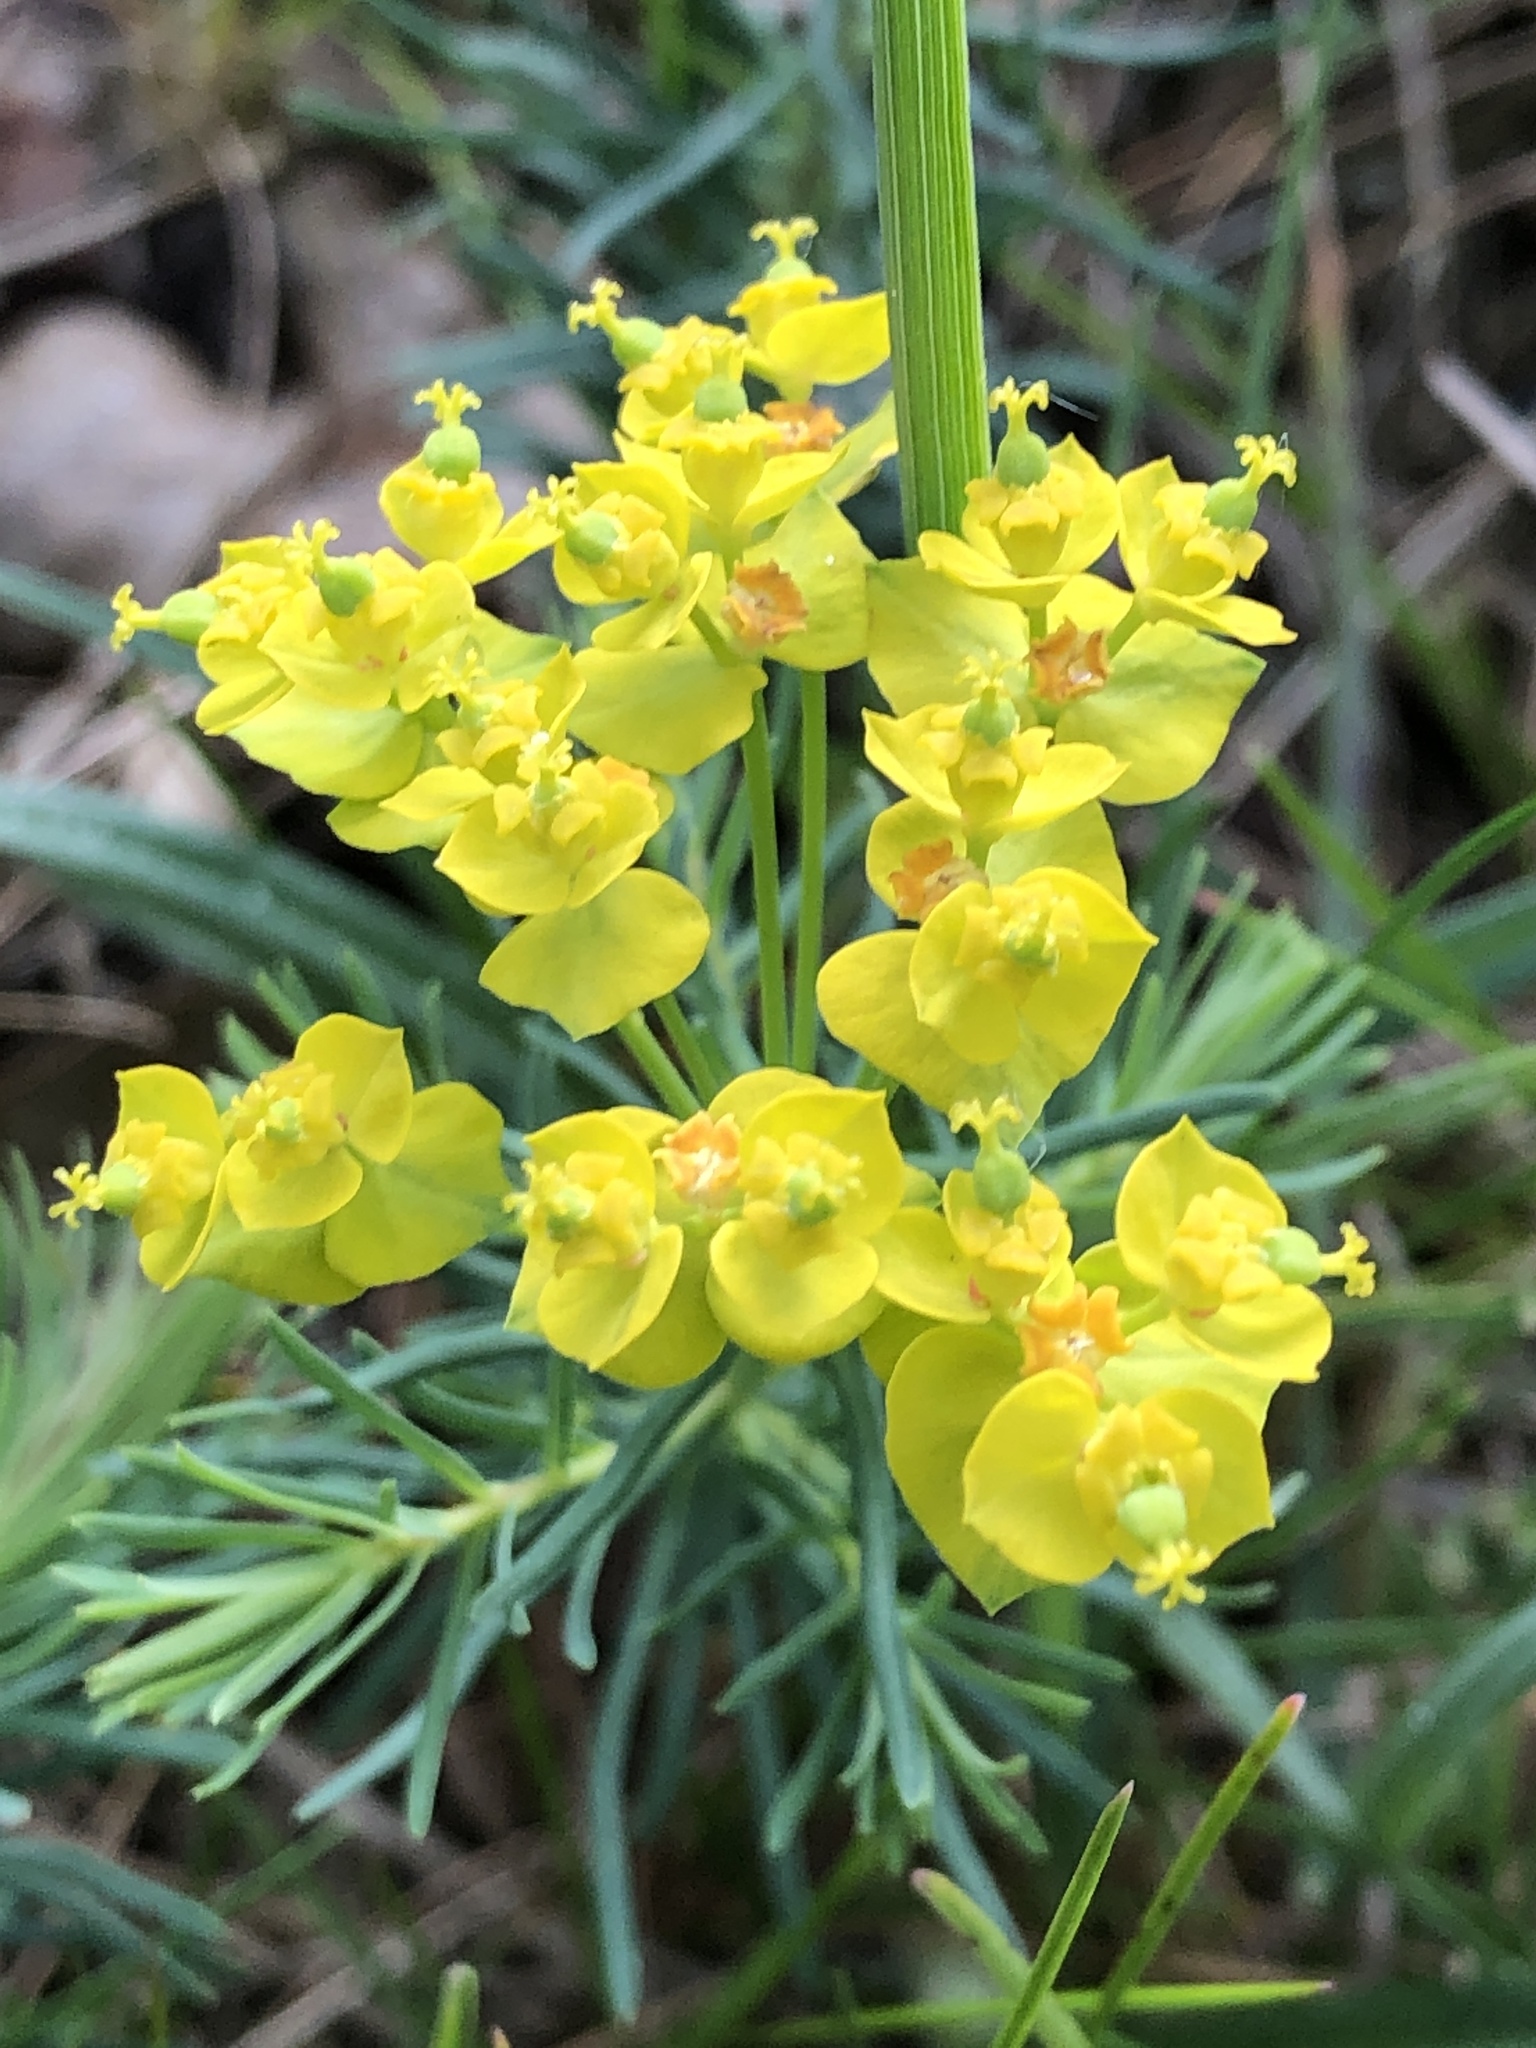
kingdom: Plantae
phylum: Tracheophyta
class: Magnoliopsida
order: Malpighiales
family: Euphorbiaceae
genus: Euphorbia
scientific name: Euphorbia cyparissias
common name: Cypress spurge
